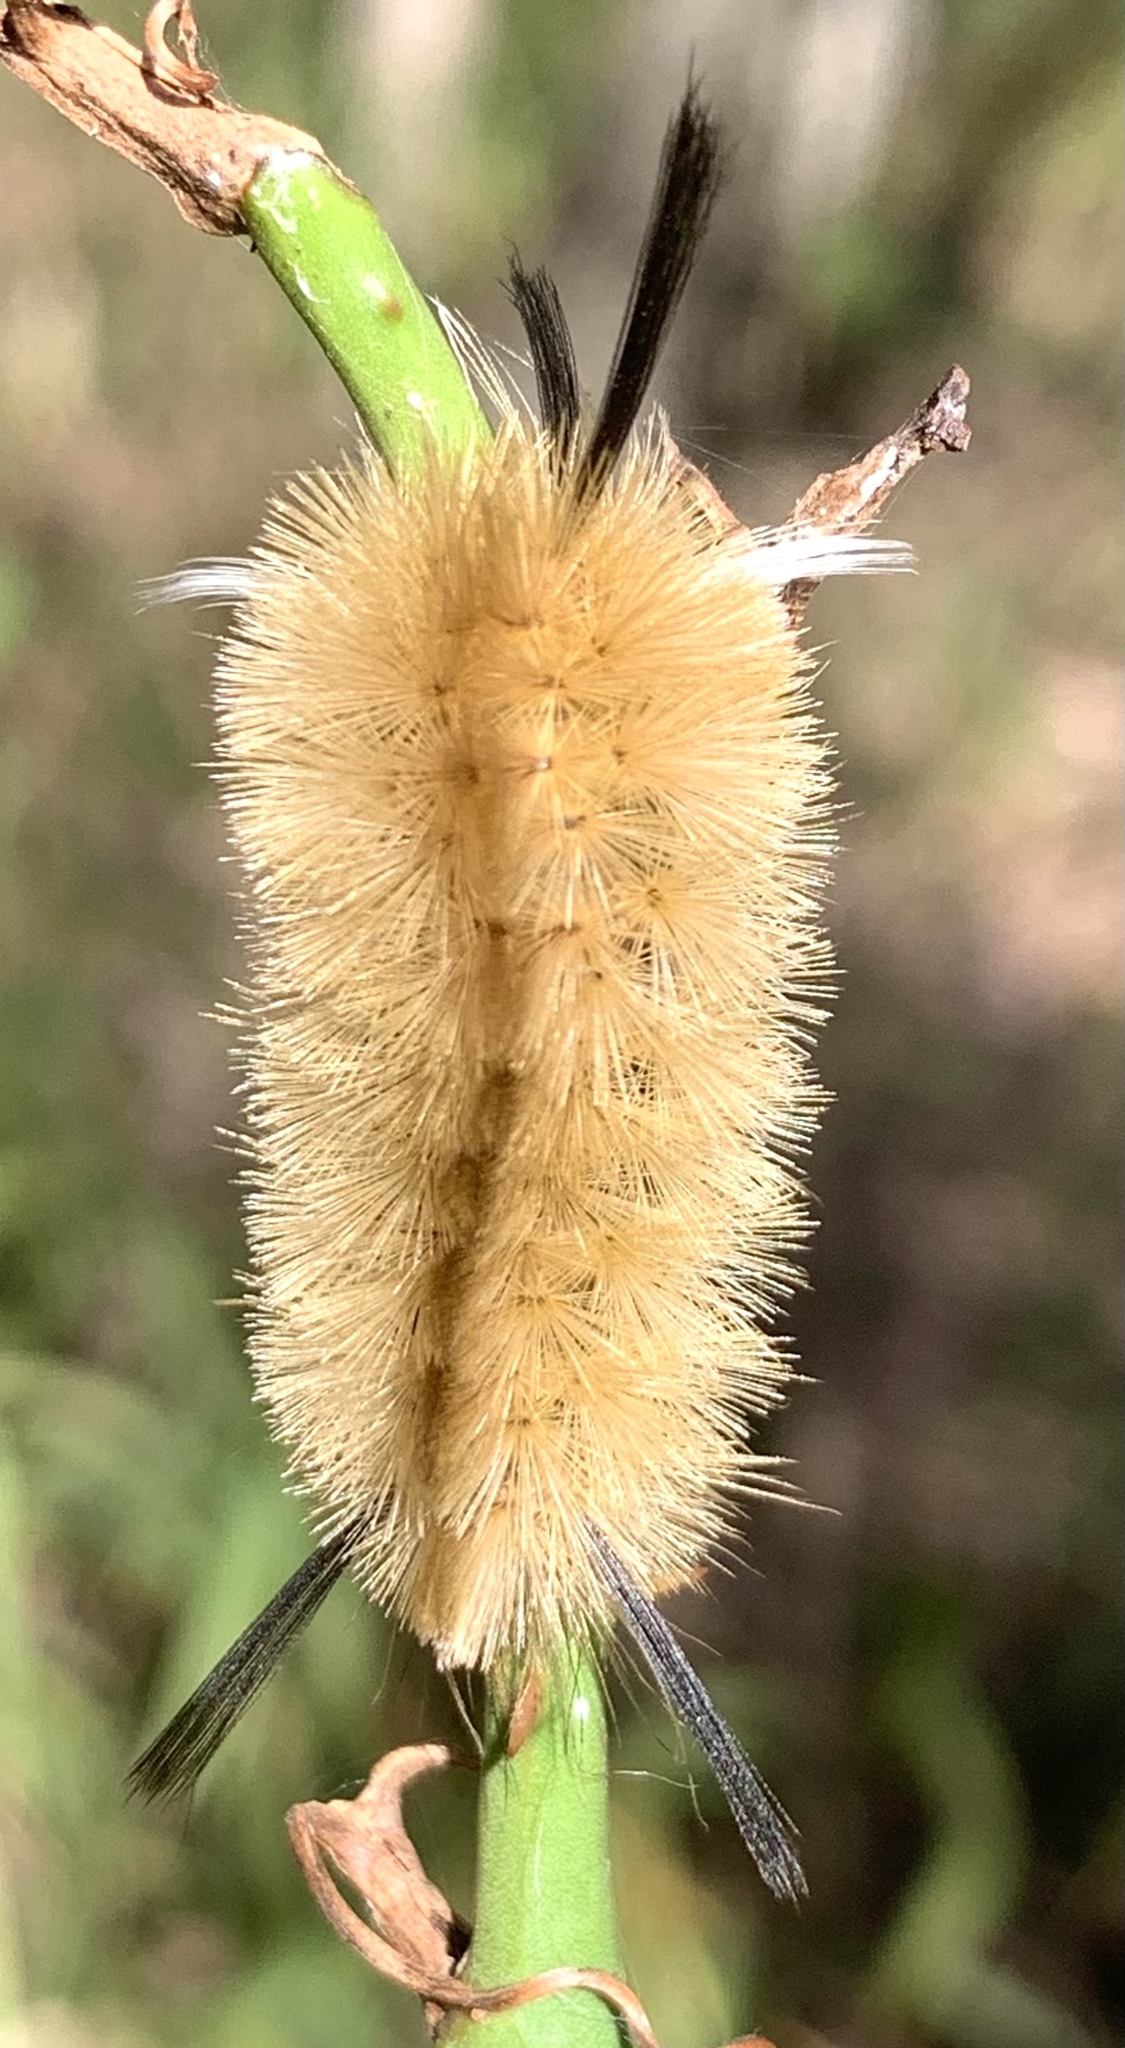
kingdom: Animalia
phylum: Arthropoda
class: Insecta
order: Lepidoptera
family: Erebidae
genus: Halysidota
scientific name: Halysidota tessellaris
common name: Banded tussock moth
